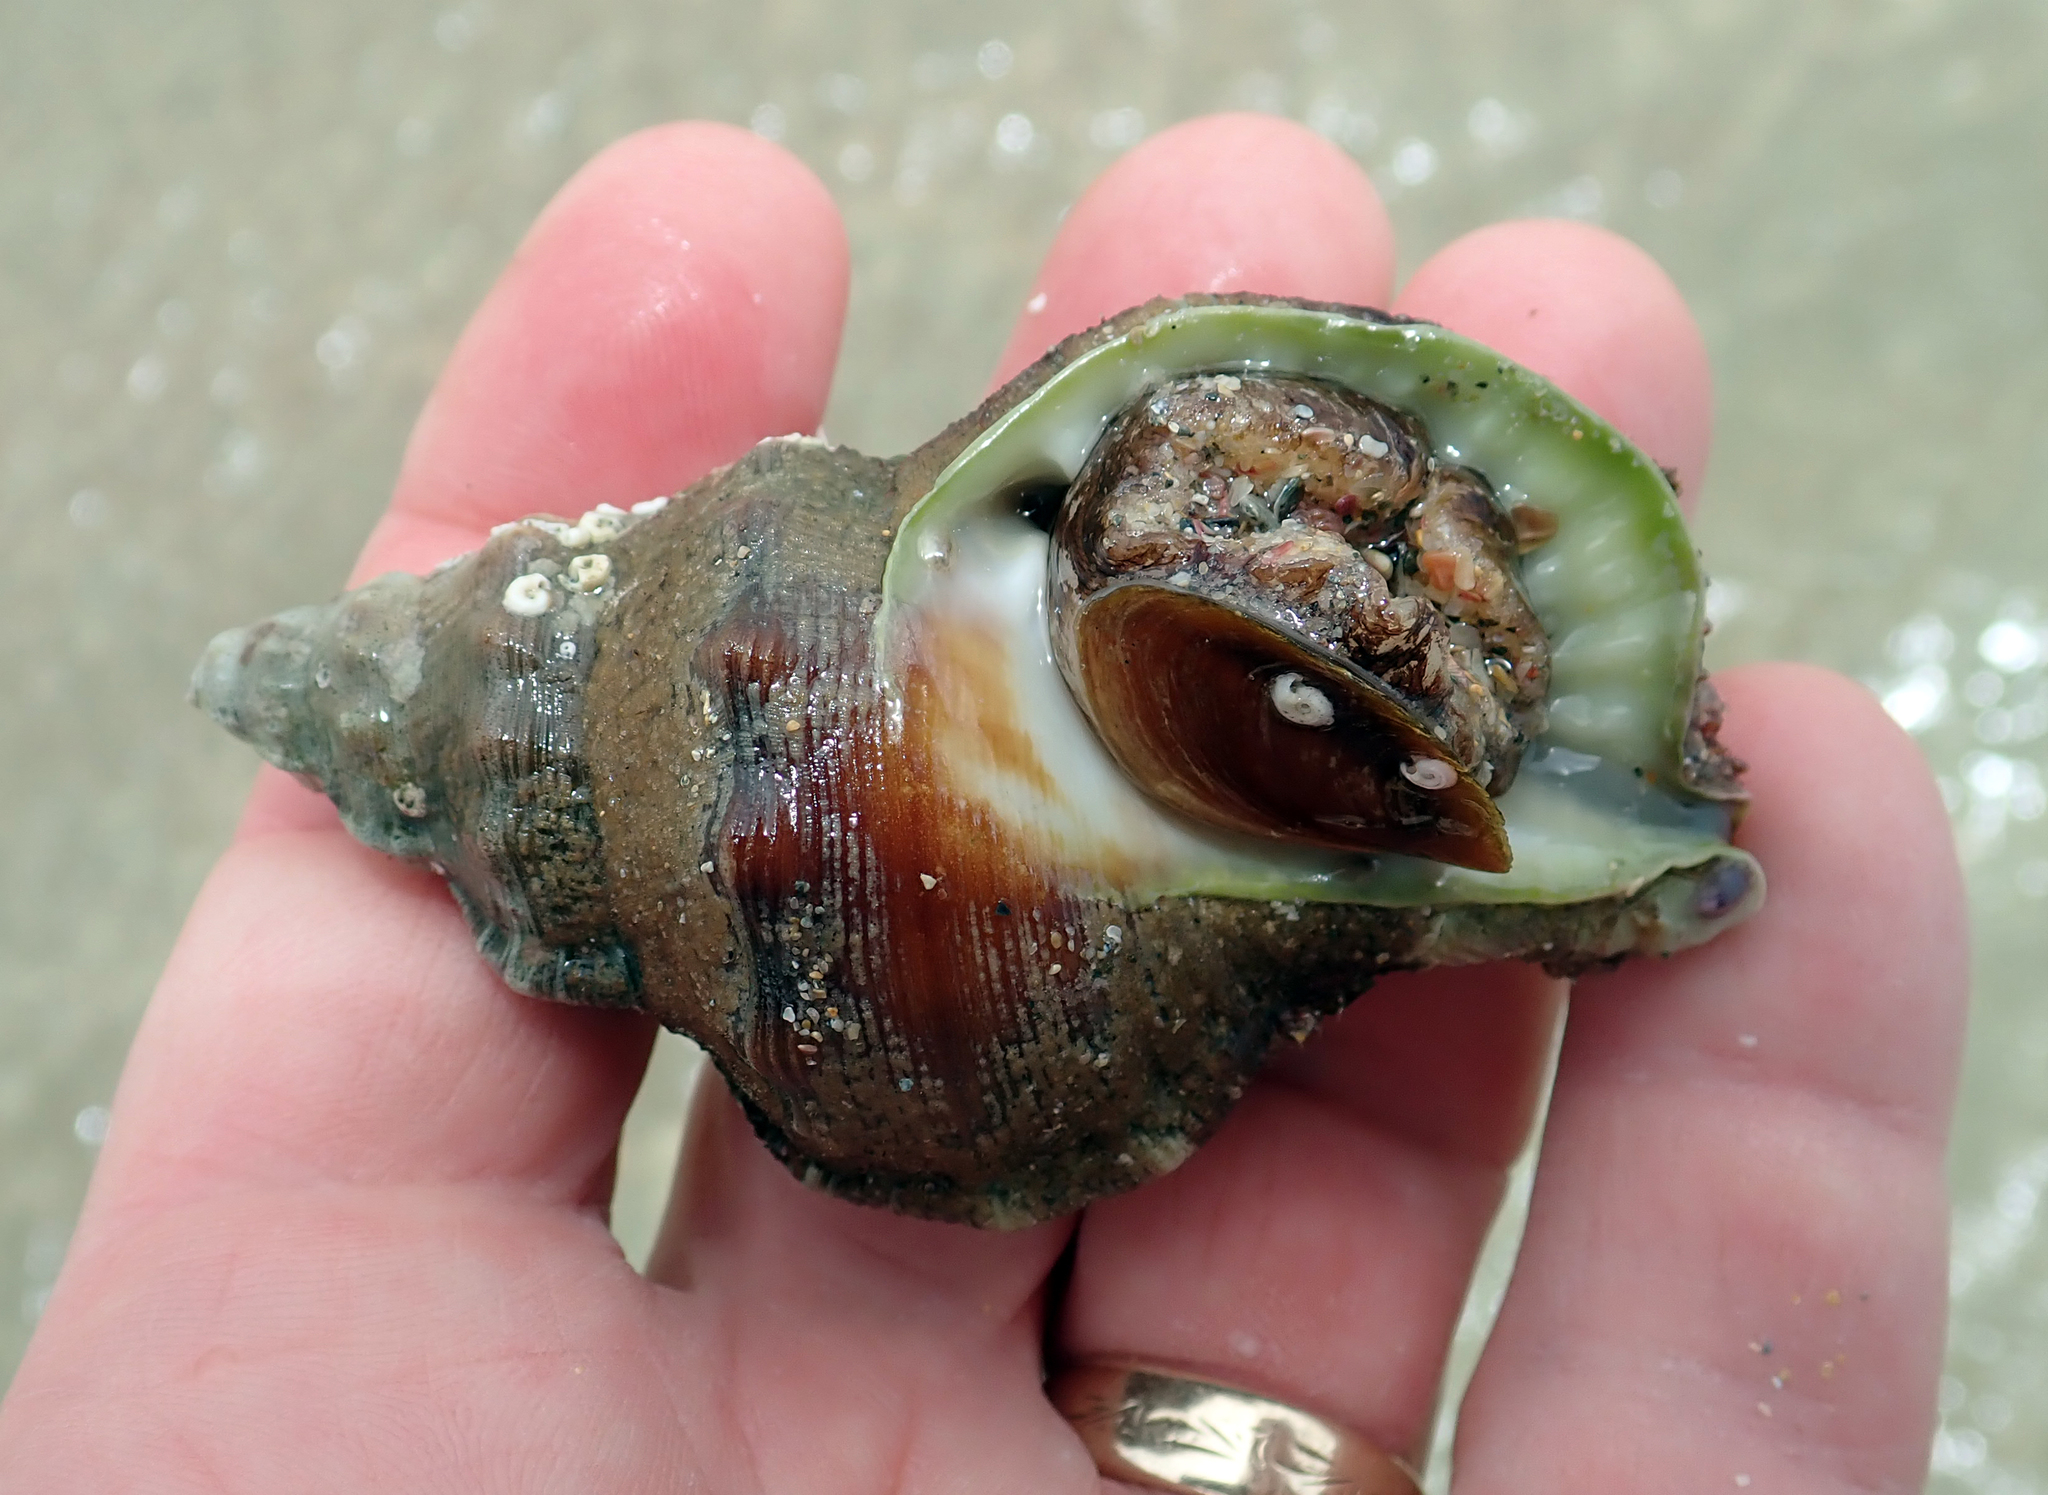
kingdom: Animalia
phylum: Mollusca
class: Gastropoda
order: Littorinimorpha
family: Ranellidae
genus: Ranella
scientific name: Ranella australasia
